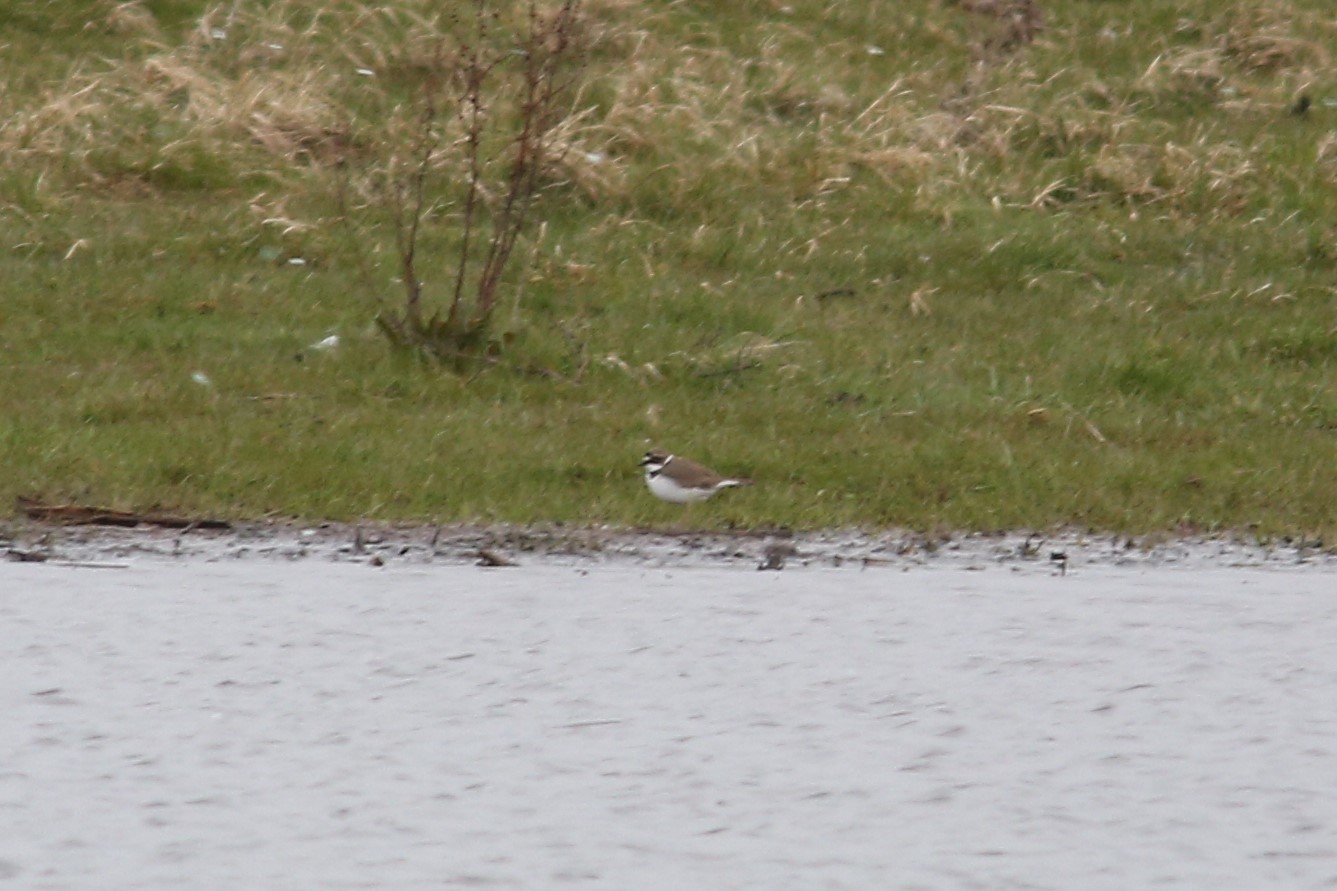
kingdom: Animalia
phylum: Chordata
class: Aves
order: Charadriiformes
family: Charadriidae
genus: Charadrius
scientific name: Charadrius dubius
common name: Little ringed plover
